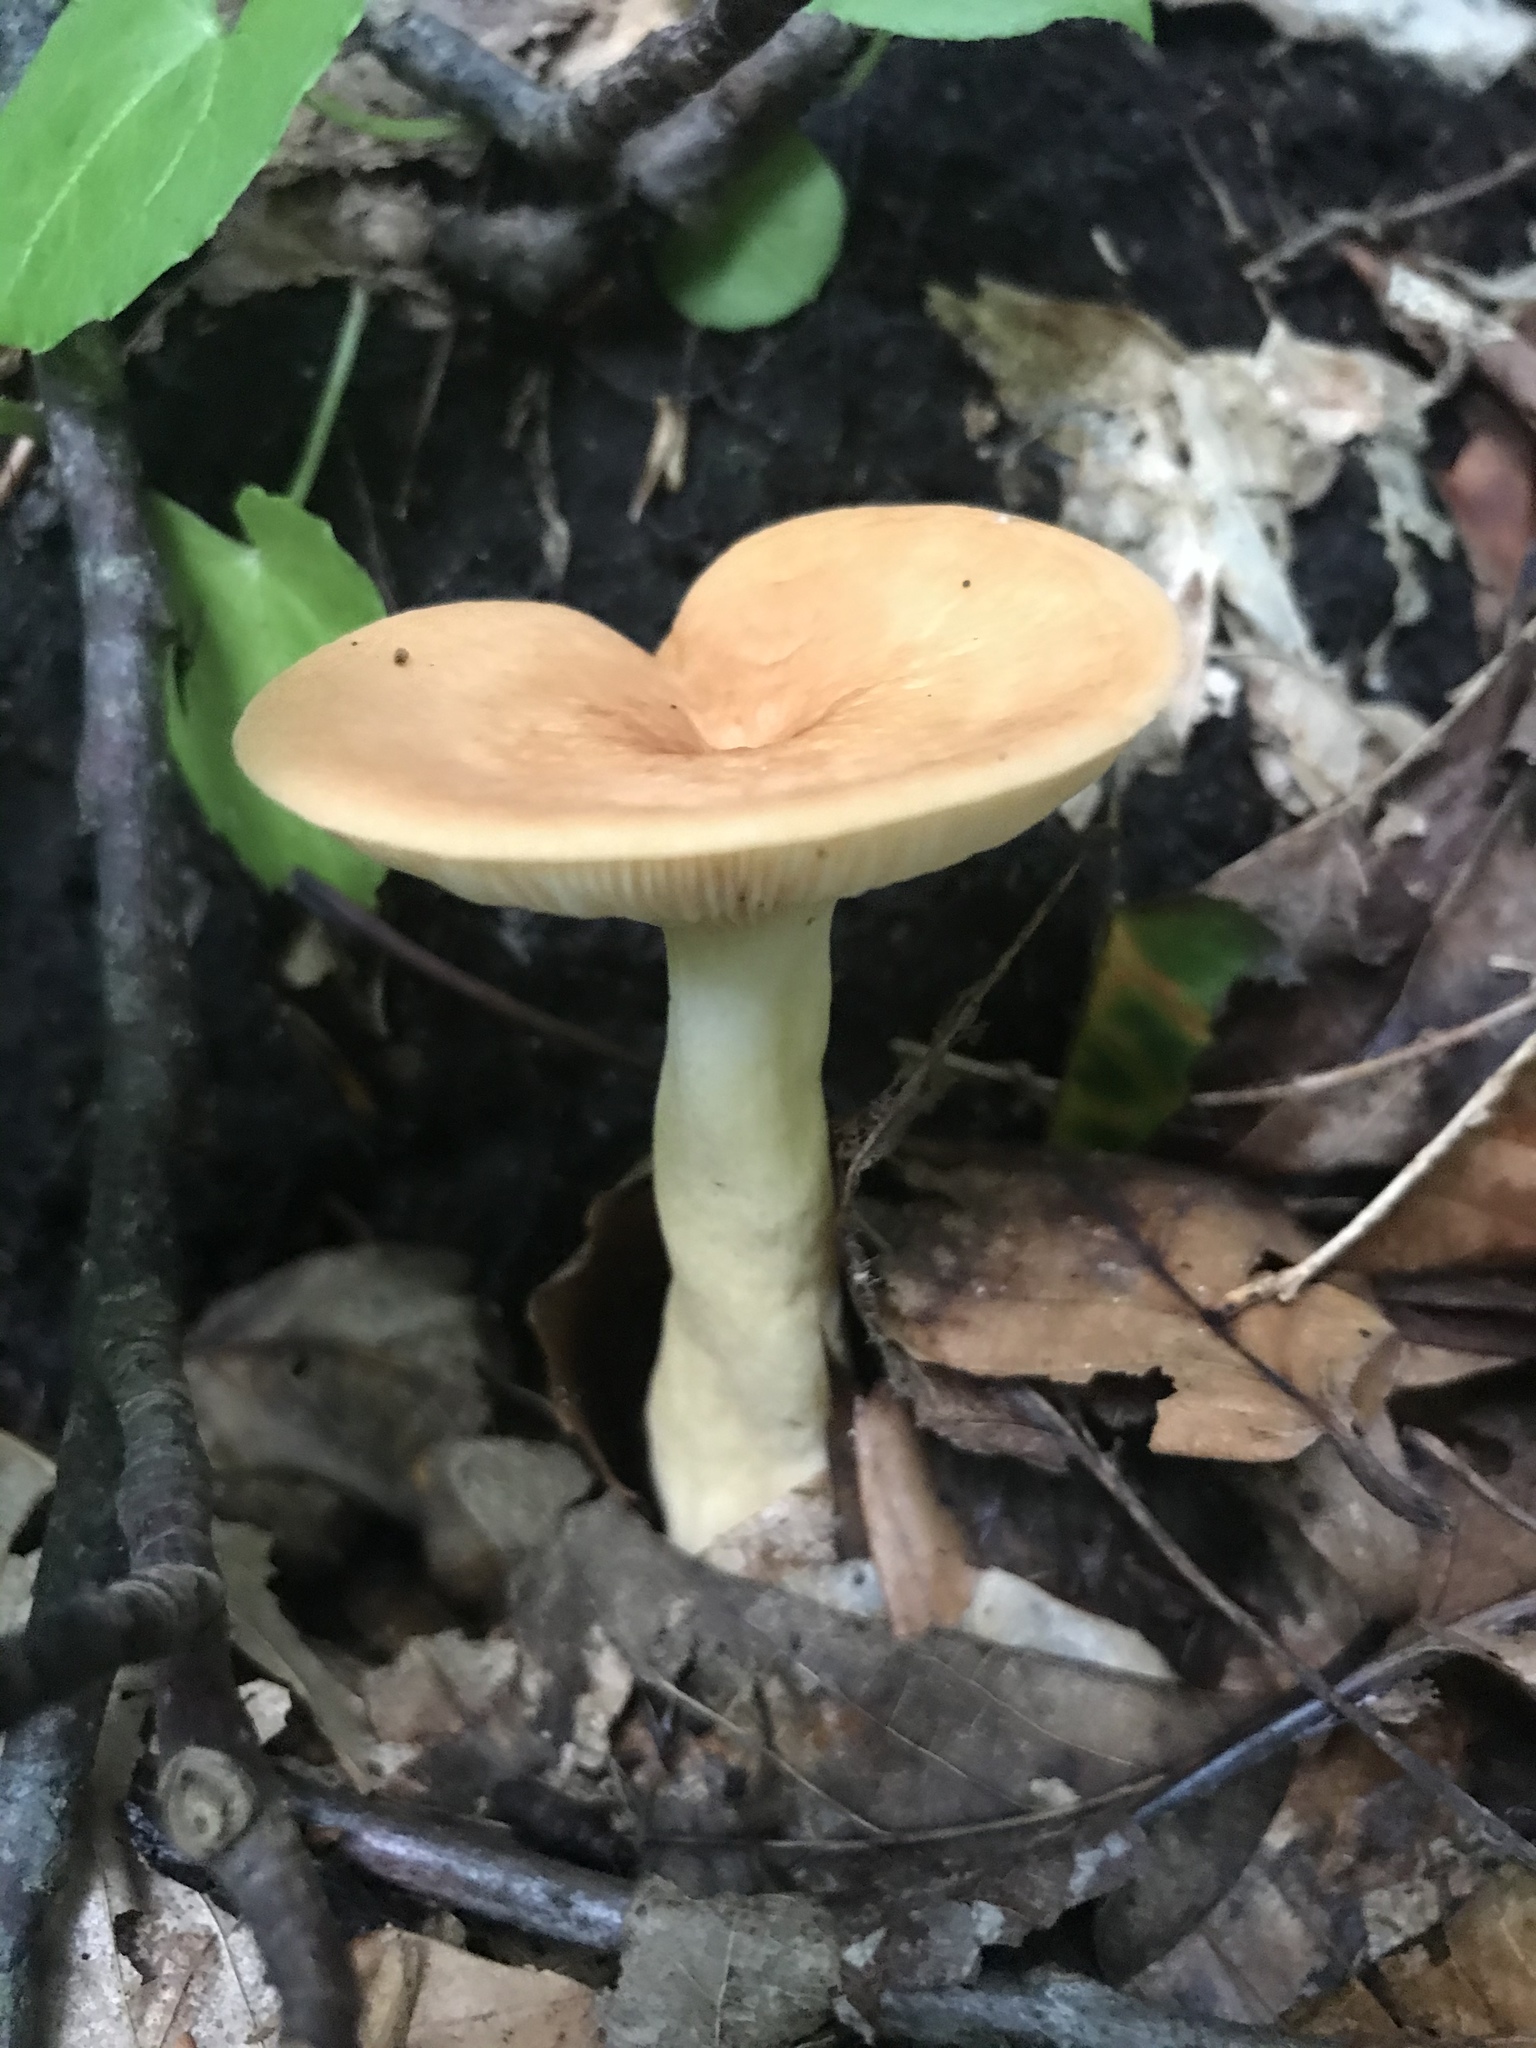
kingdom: Fungi
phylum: Basidiomycota
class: Agaricomycetes
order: Russulales
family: Russulaceae
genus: Lactifluus
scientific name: Lactifluus volemus
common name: Fishy milkcap
